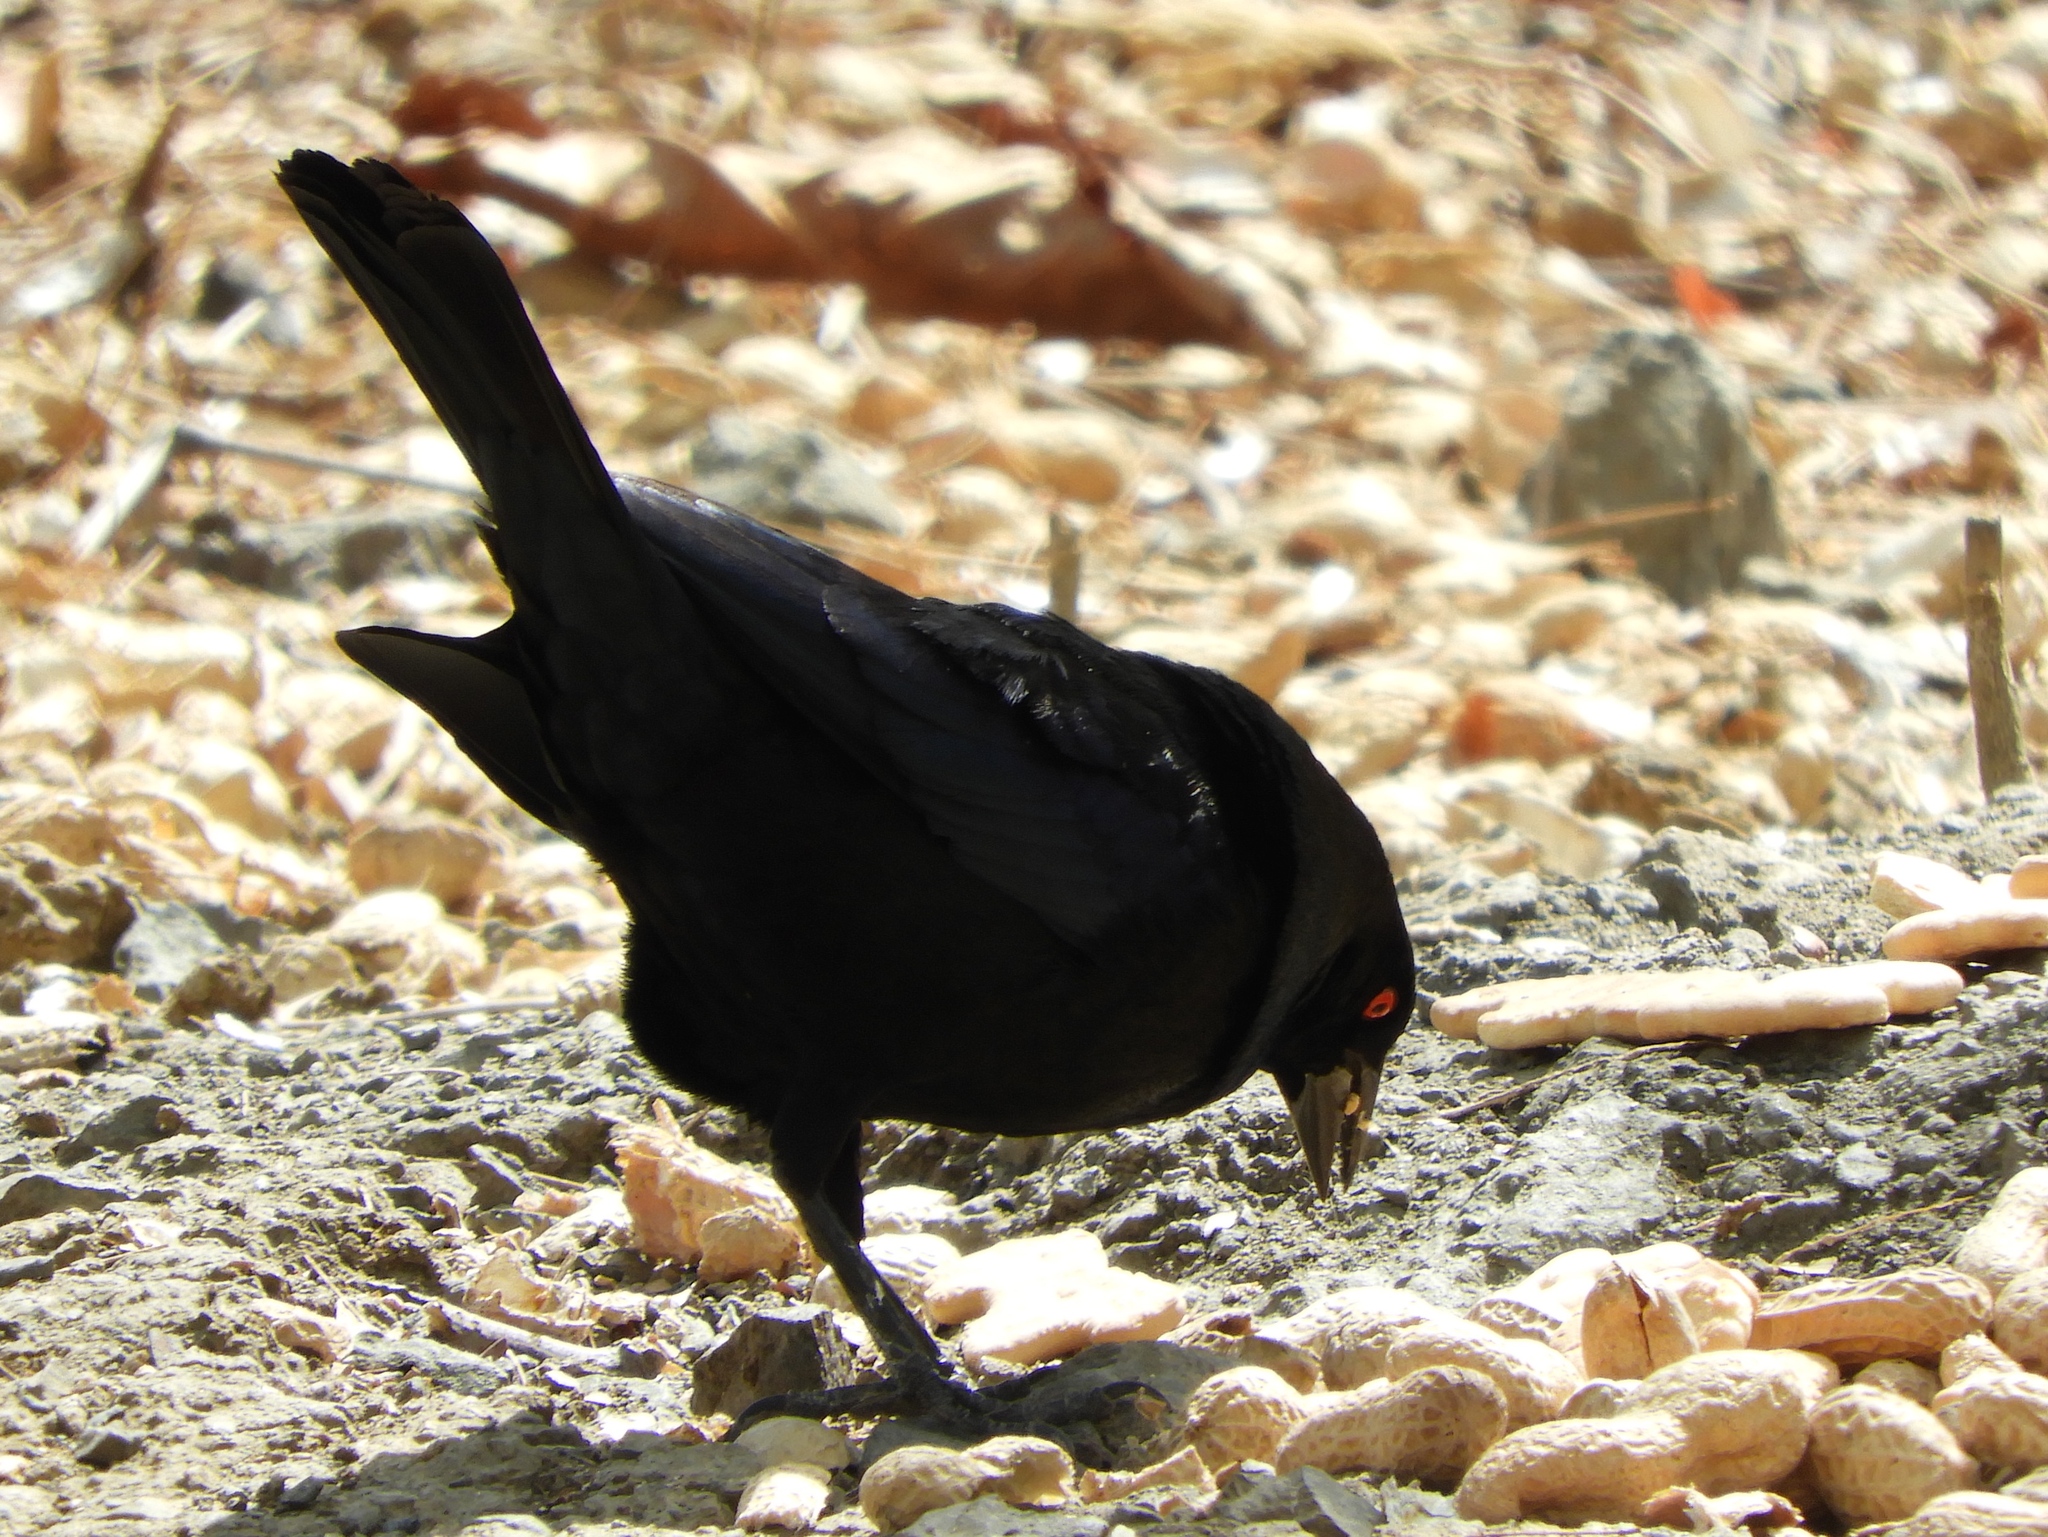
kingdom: Animalia
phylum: Chordata
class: Aves
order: Passeriformes
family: Icteridae
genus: Molothrus
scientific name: Molothrus aeneus
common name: Bronzed cowbird
